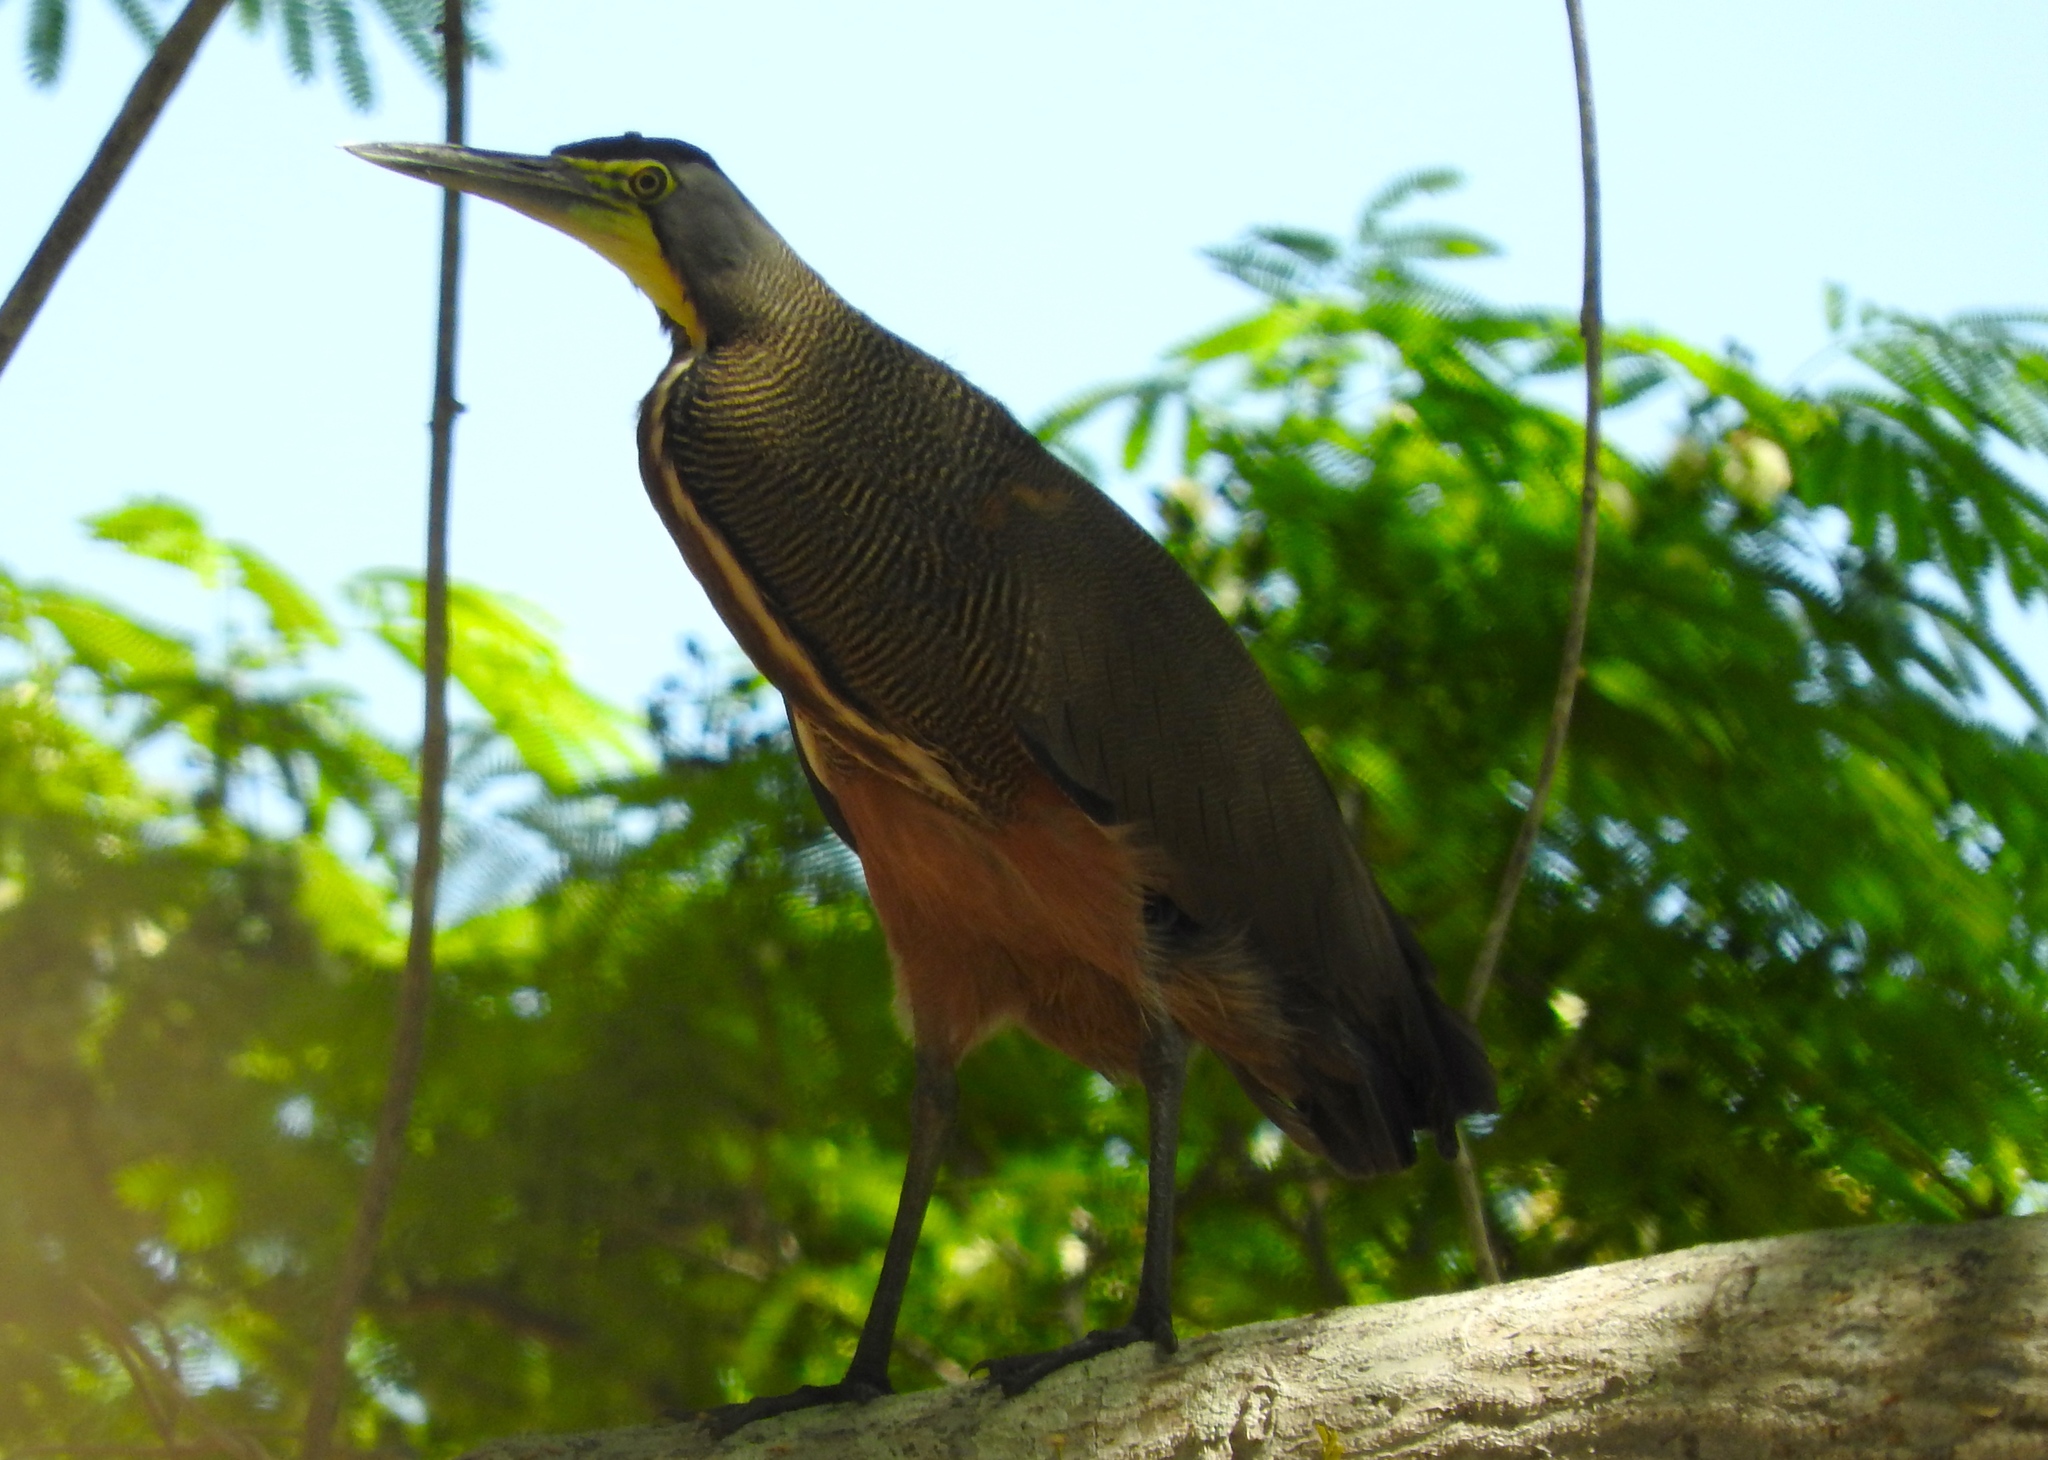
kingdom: Animalia
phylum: Chordata
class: Aves
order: Pelecaniformes
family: Ardeidae
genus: Tigrisoma
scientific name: Tigrisoma mexicanum
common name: Bare-throated tiger-heron
